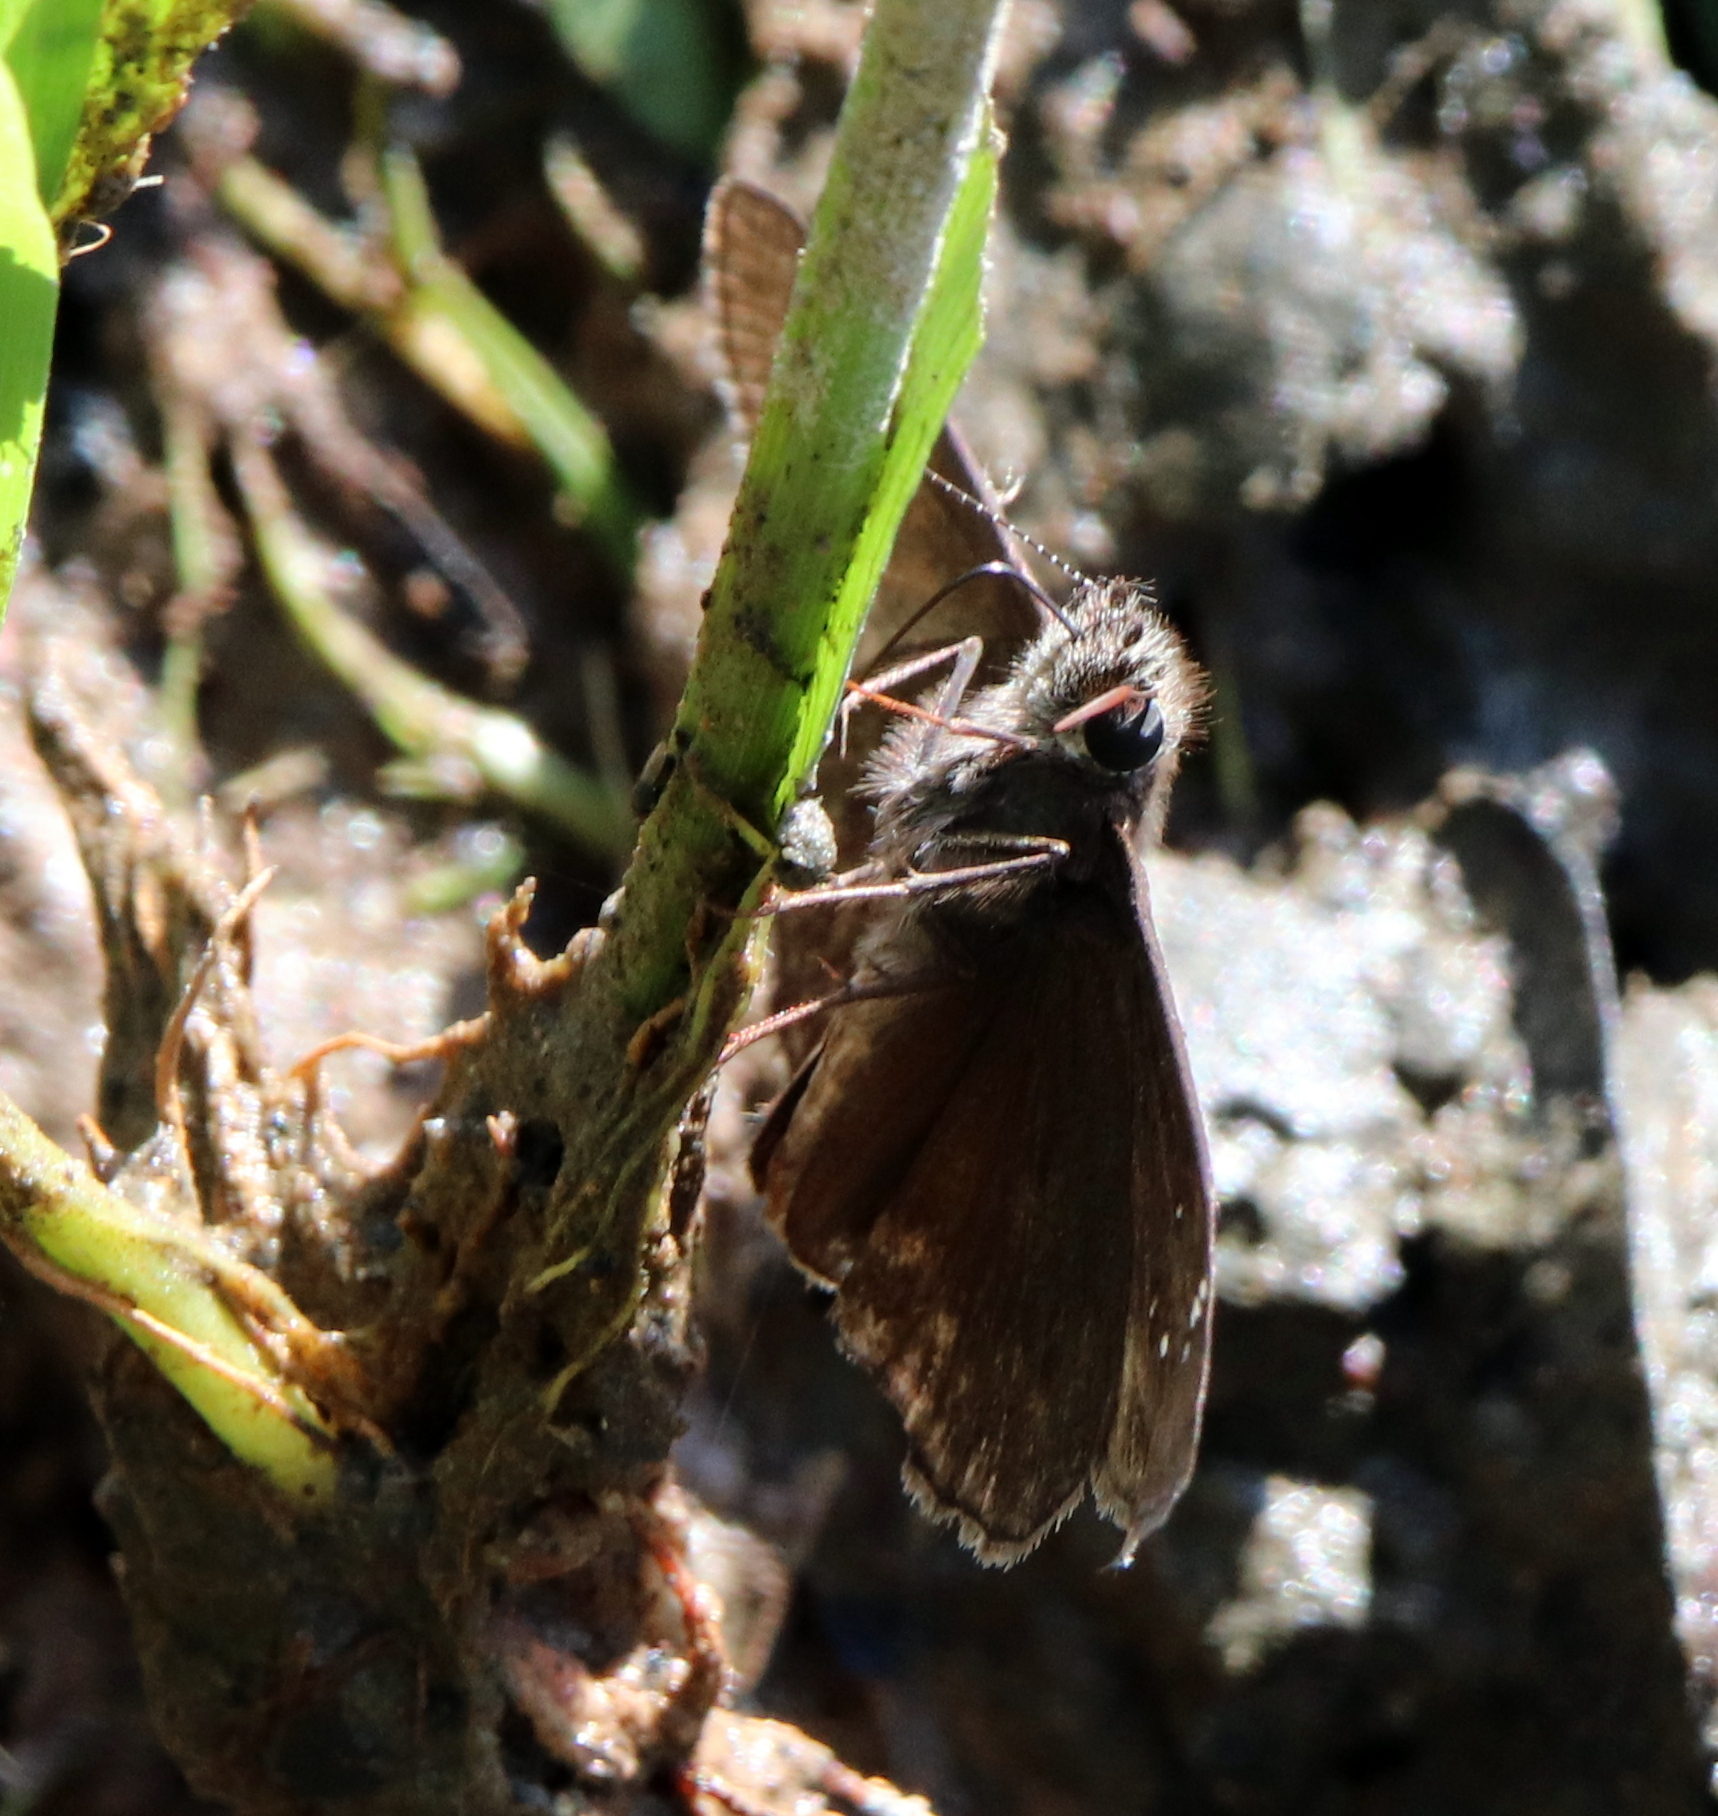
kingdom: Animalia
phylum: Arthropoda
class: Insecta
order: Lepidoptera
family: Hesperiidae
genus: Erynnis
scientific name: Erynnis horatius
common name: Horace's duskywing
